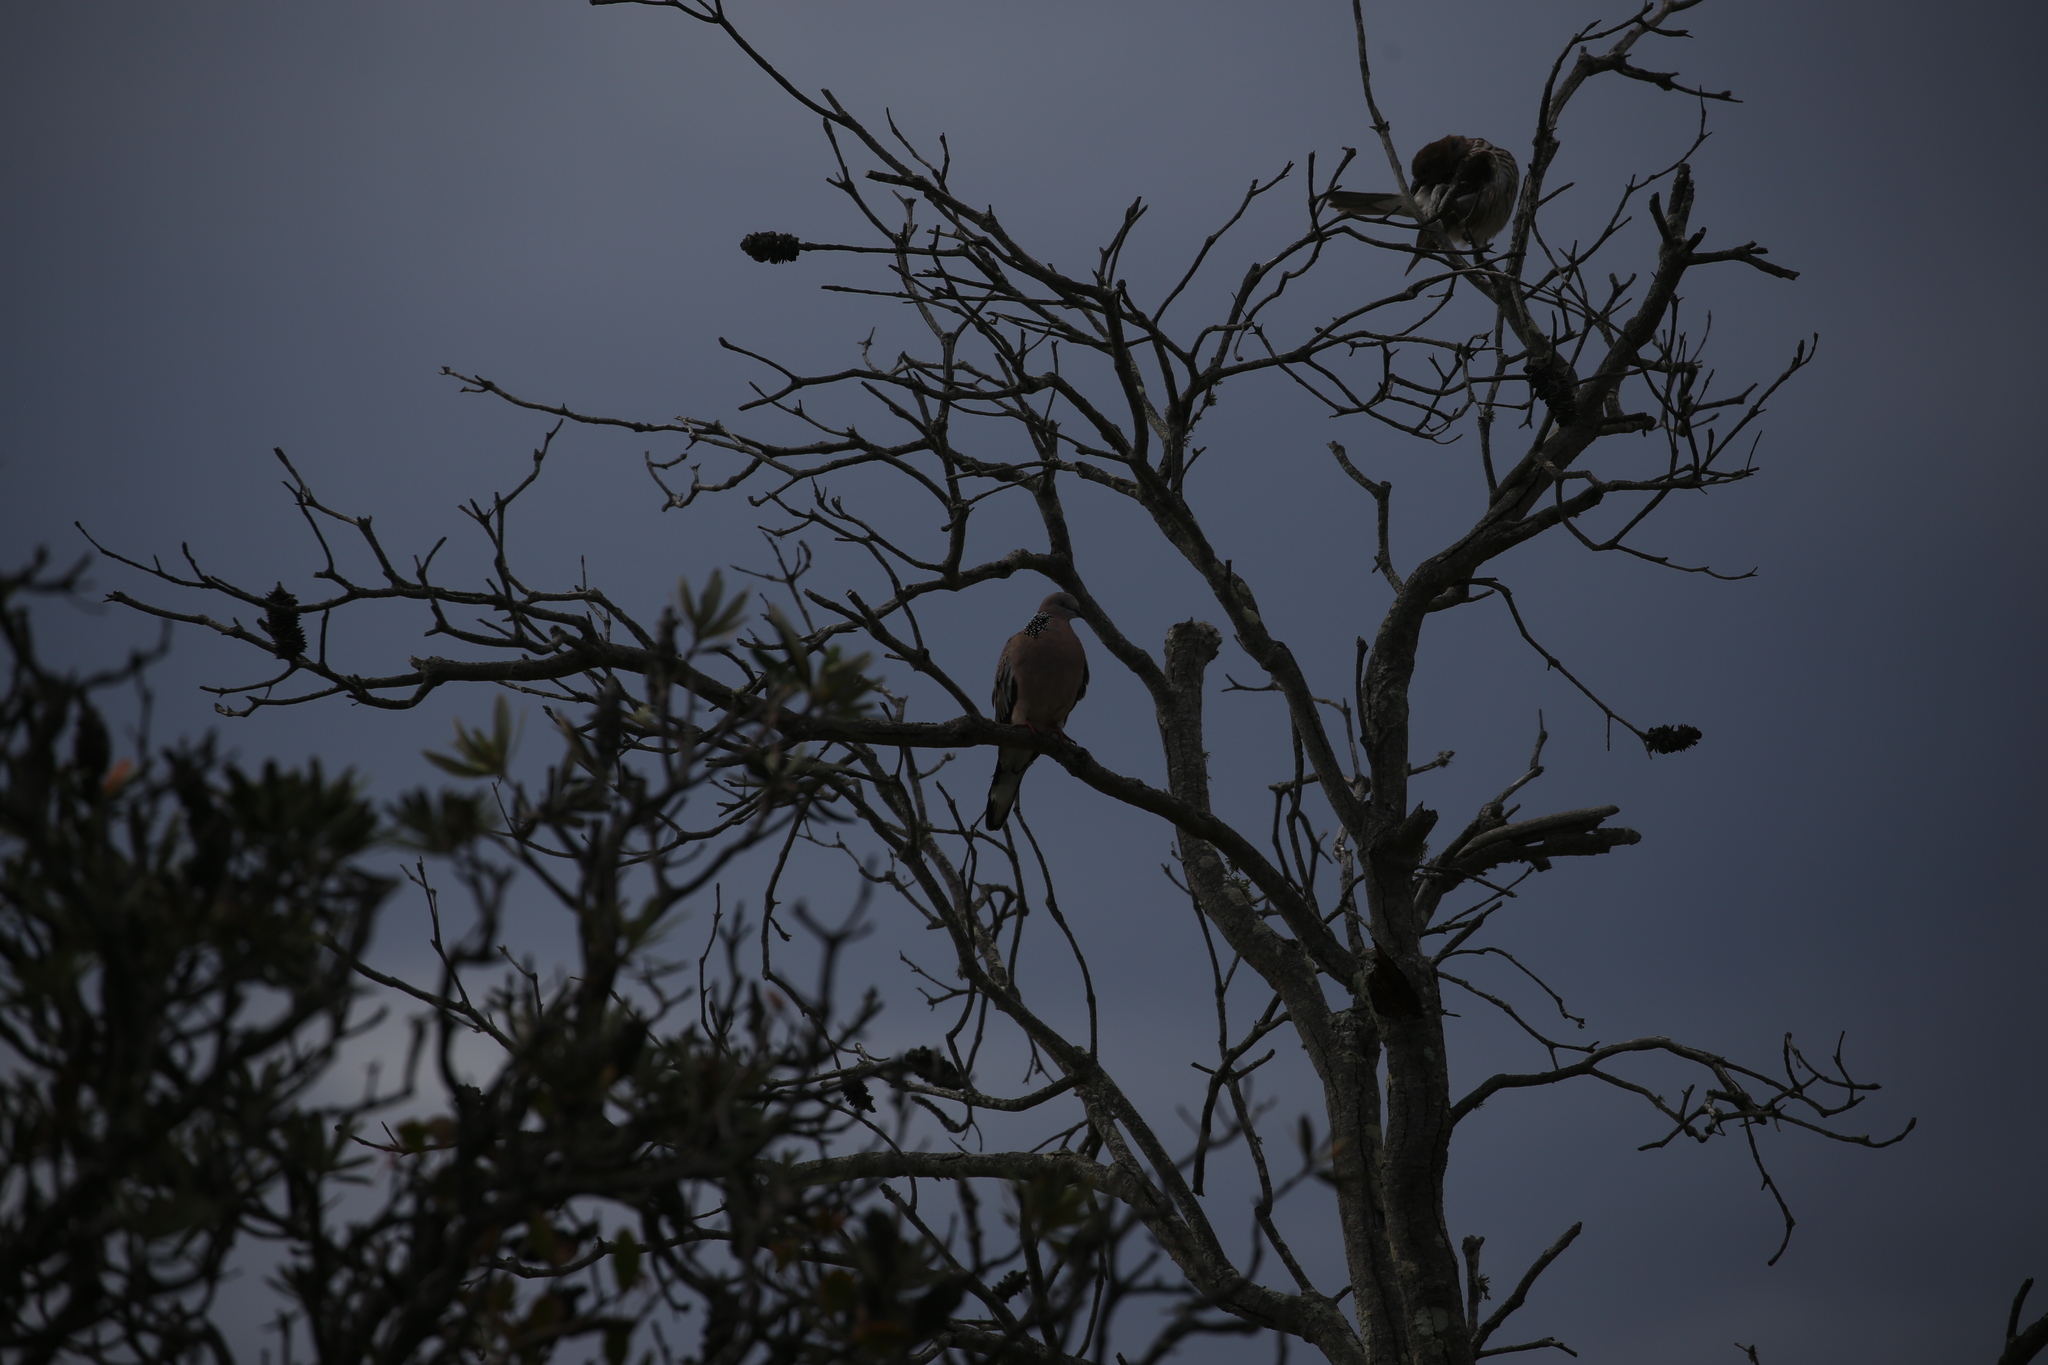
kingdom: Animalia
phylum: Chordata
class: Aves
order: Columbiformes
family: Columbidae
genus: Spilopelia
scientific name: Spilopelia chinensis
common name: Spotted dove
